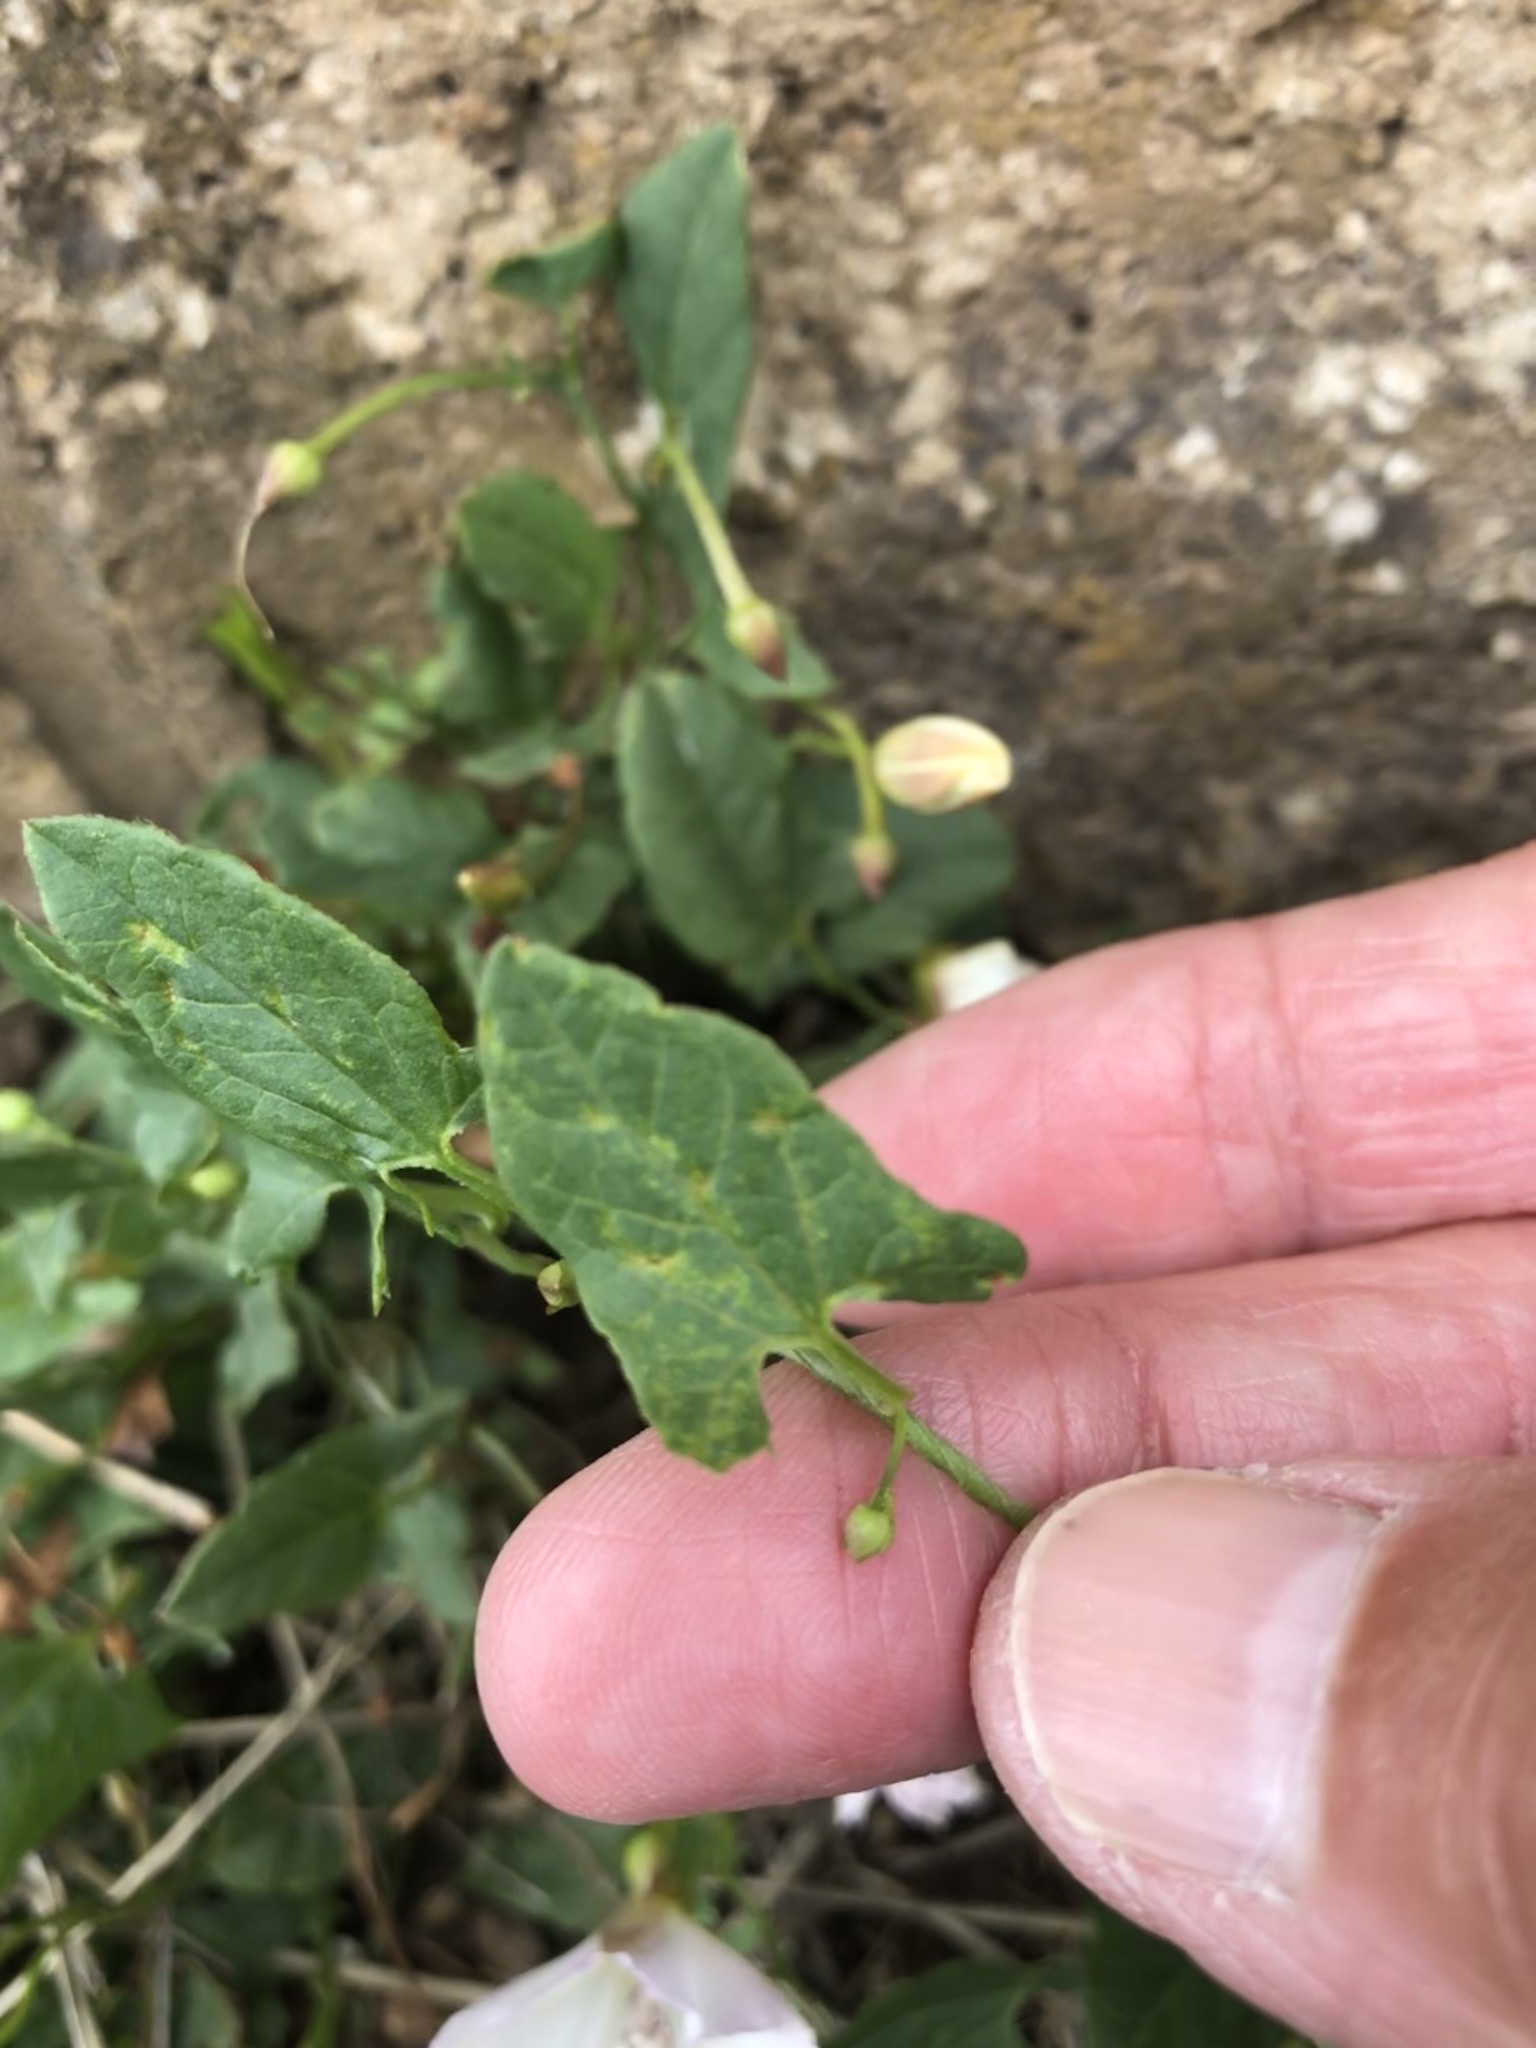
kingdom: Plantae
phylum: Tracheophyta
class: Magnoliopsida
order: Solanales
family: Convolvulaceae
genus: Convolvulus
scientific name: Convolvulus arvensis
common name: Field bindweed
